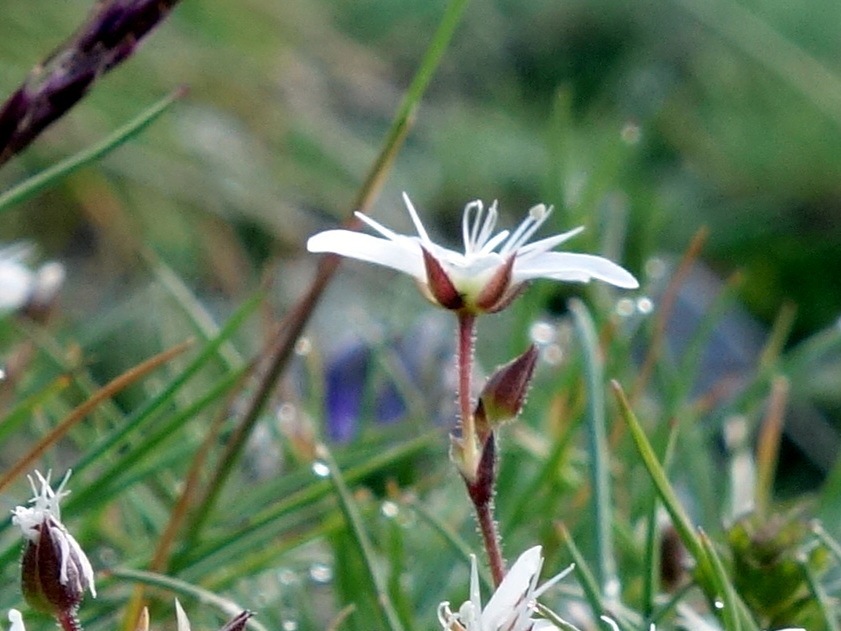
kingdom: Plantae
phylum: Tracheophyta
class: Magnoliopsida
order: Caryophyllales
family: Caryophyllaceae
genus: Minuartia
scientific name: Minuartia recurva
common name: Recurved sandwort
